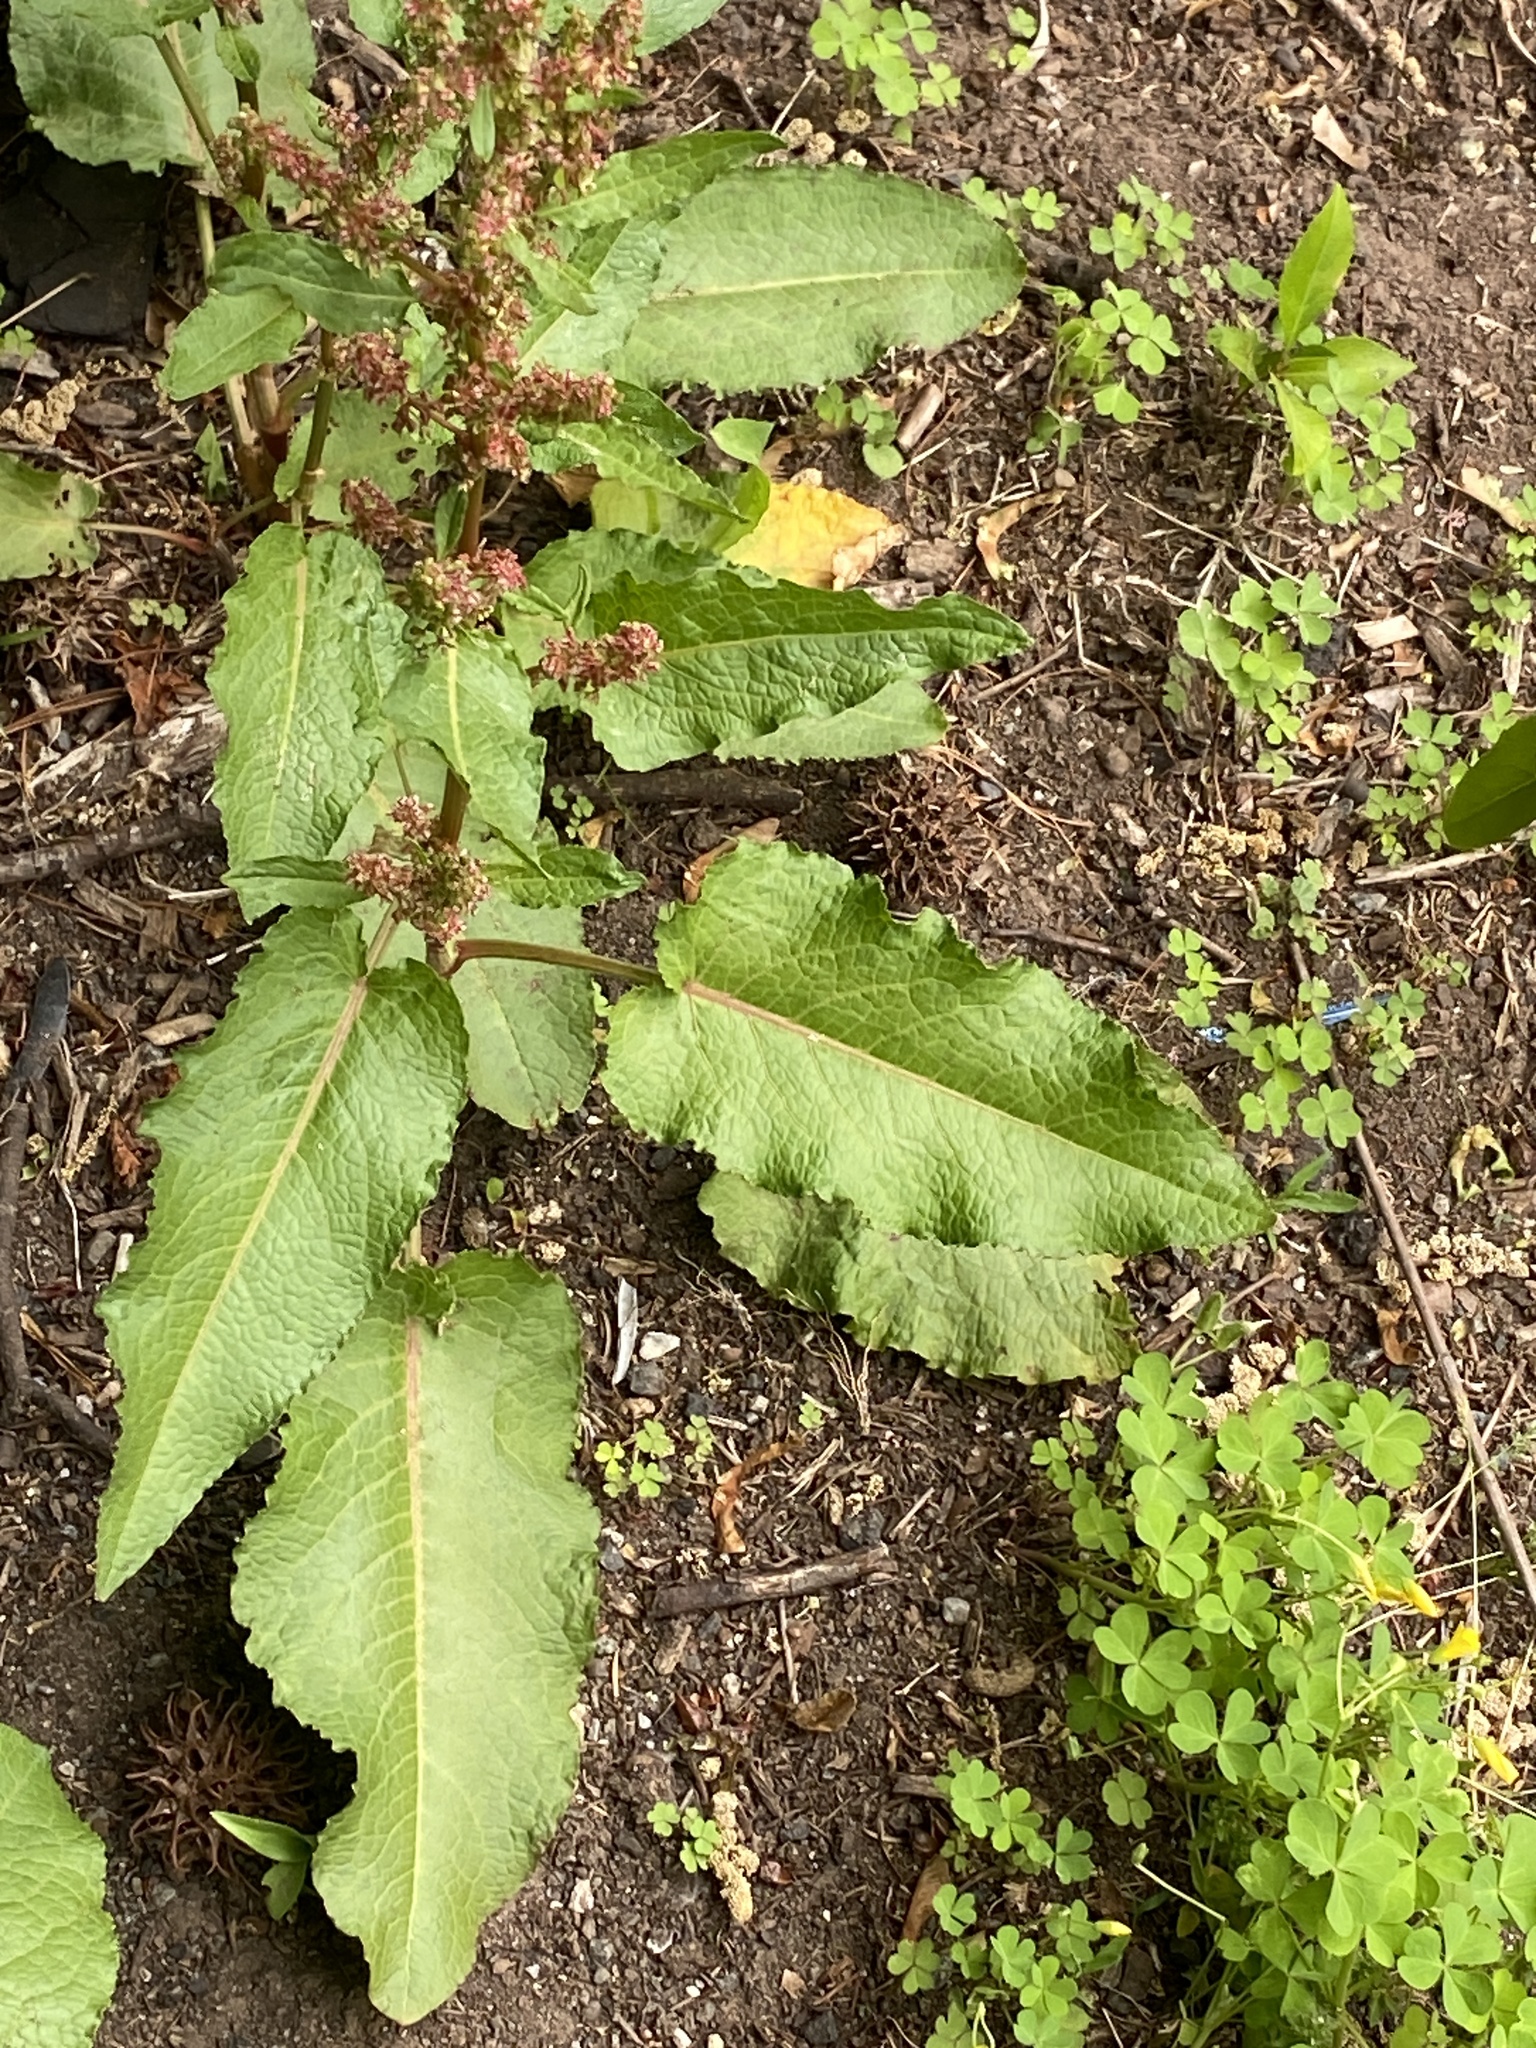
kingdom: Plantae
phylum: Tracheophyta
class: Magnoliopsida
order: Caryophyllales
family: Polygonaceae
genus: Rumex
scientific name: Rumex obtusifolius
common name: Bitter dock
